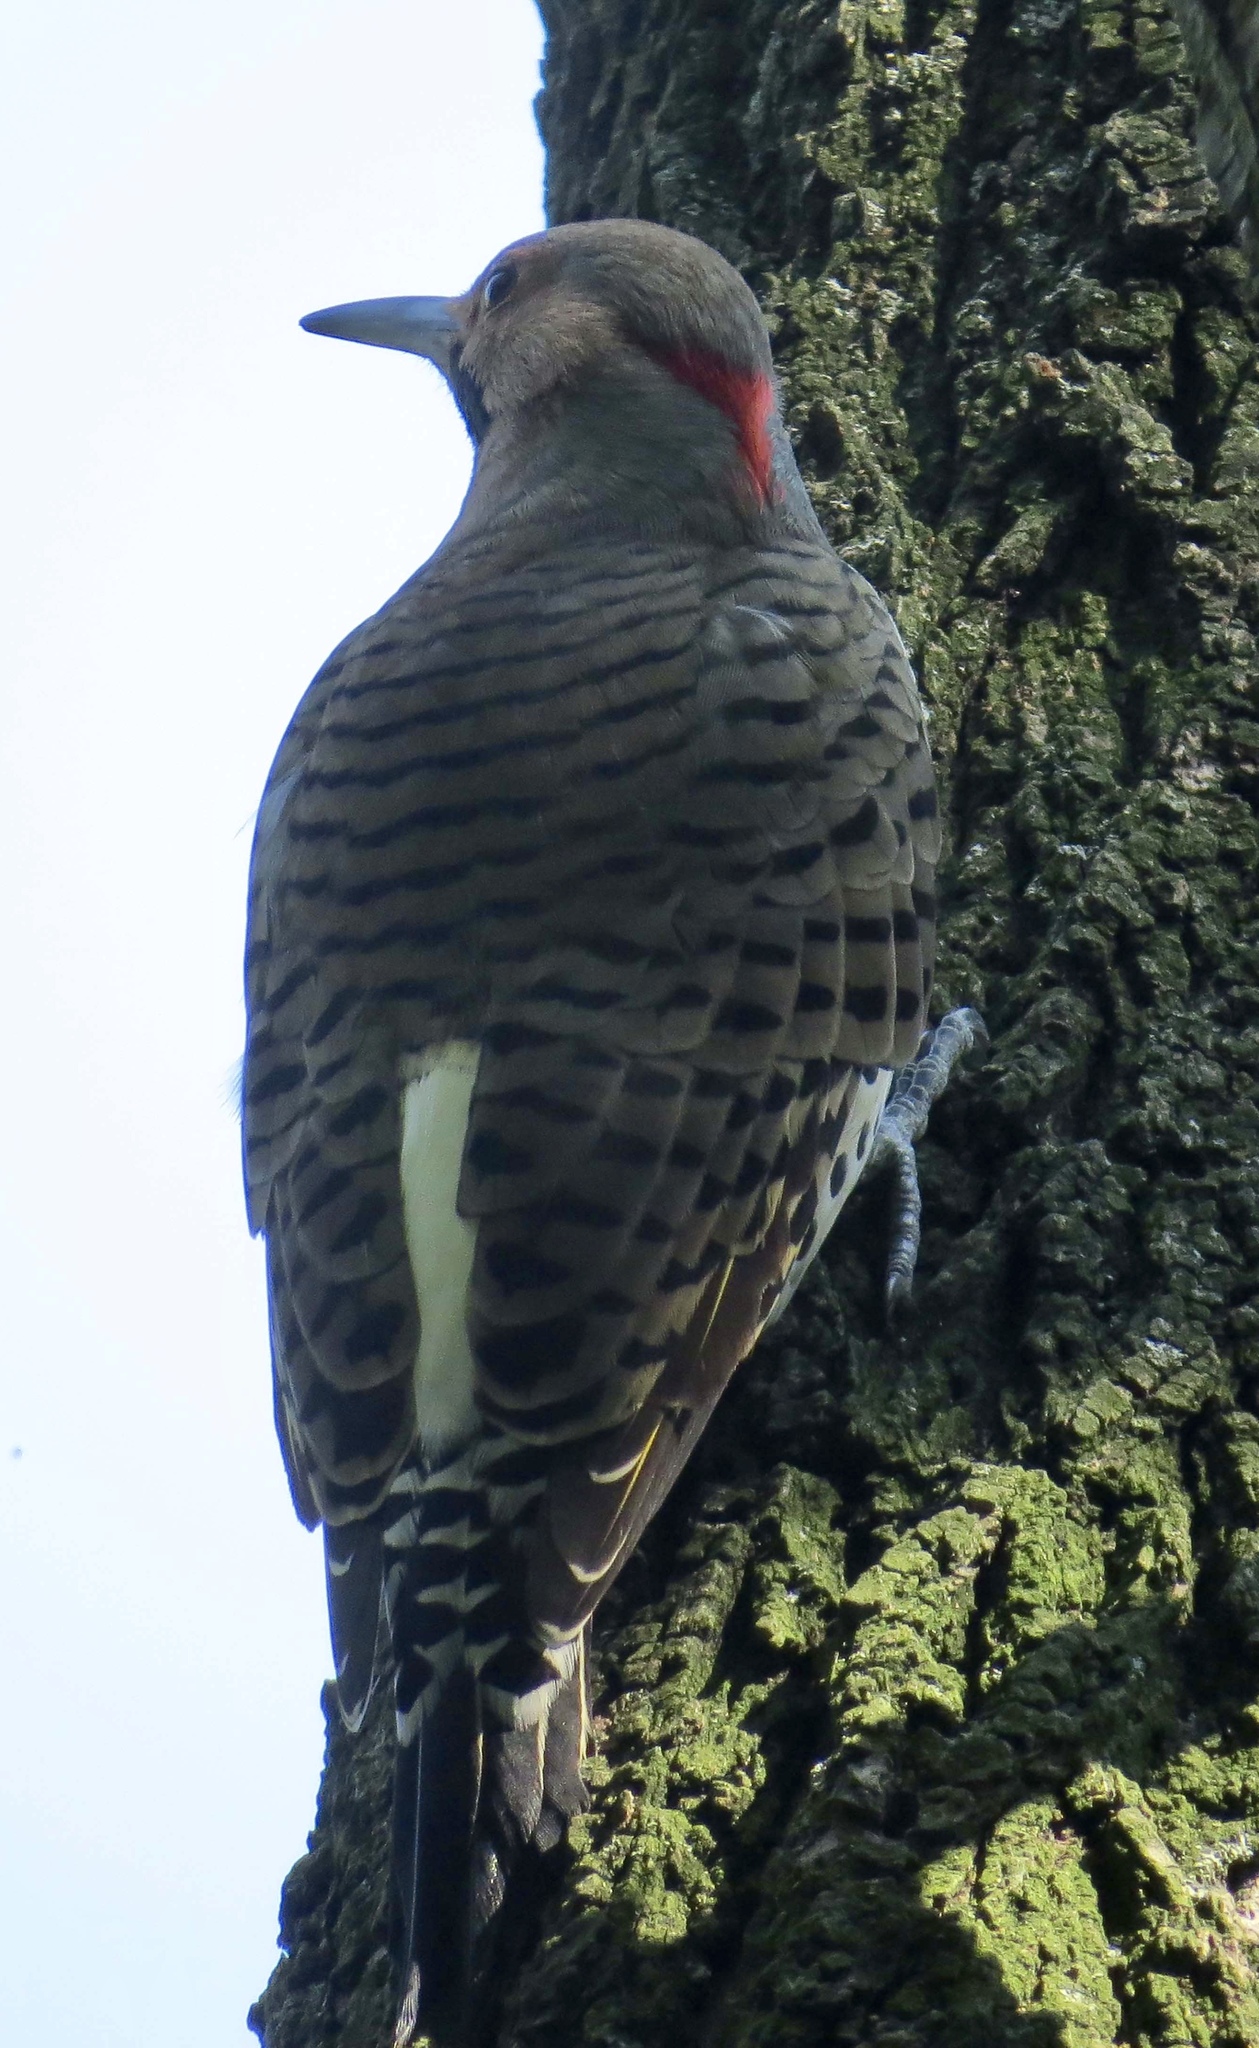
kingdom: Animalia
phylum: Chordata
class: Aves
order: Piciformes
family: Picidae
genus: Colaptes
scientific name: Colaptes auratus
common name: Northern flicker
